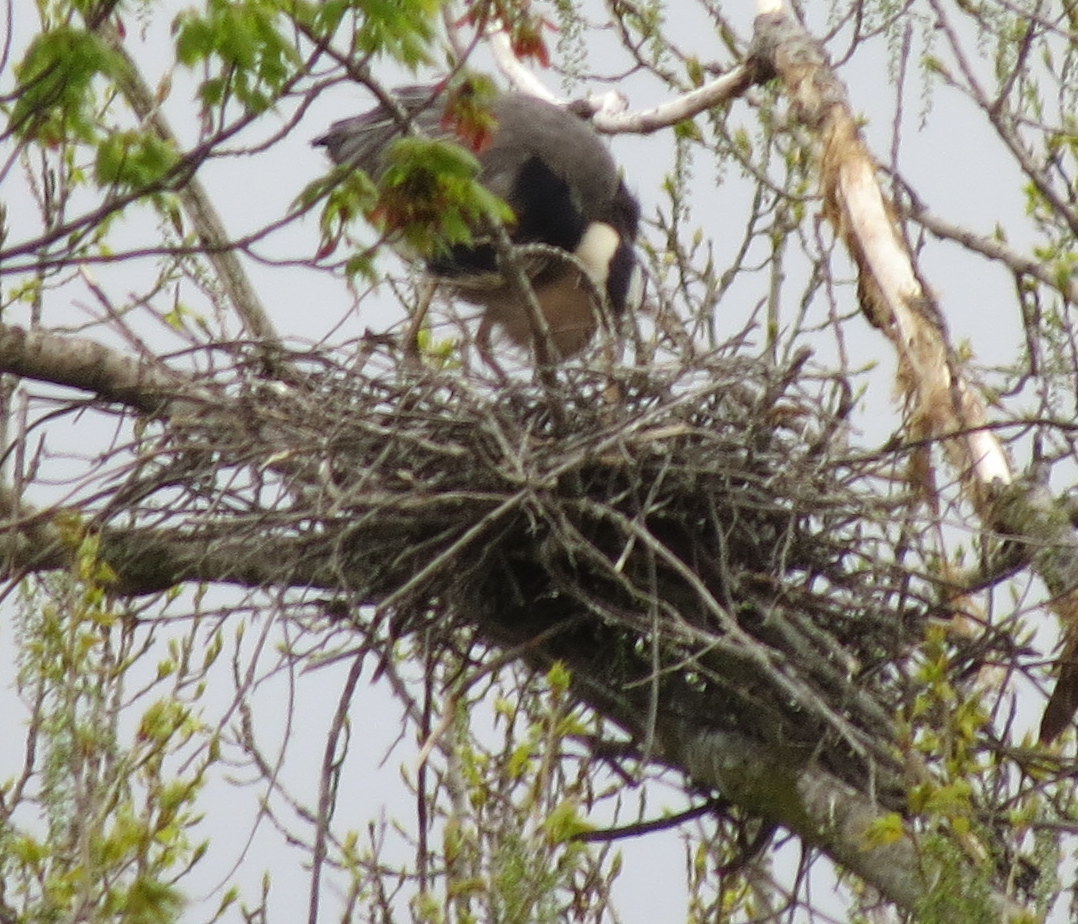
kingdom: Animalia
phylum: Chordata
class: Aves
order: Pelecaniformes
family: Ardeidae
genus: Ardea
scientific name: Ardea herodias
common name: Great blue heron
